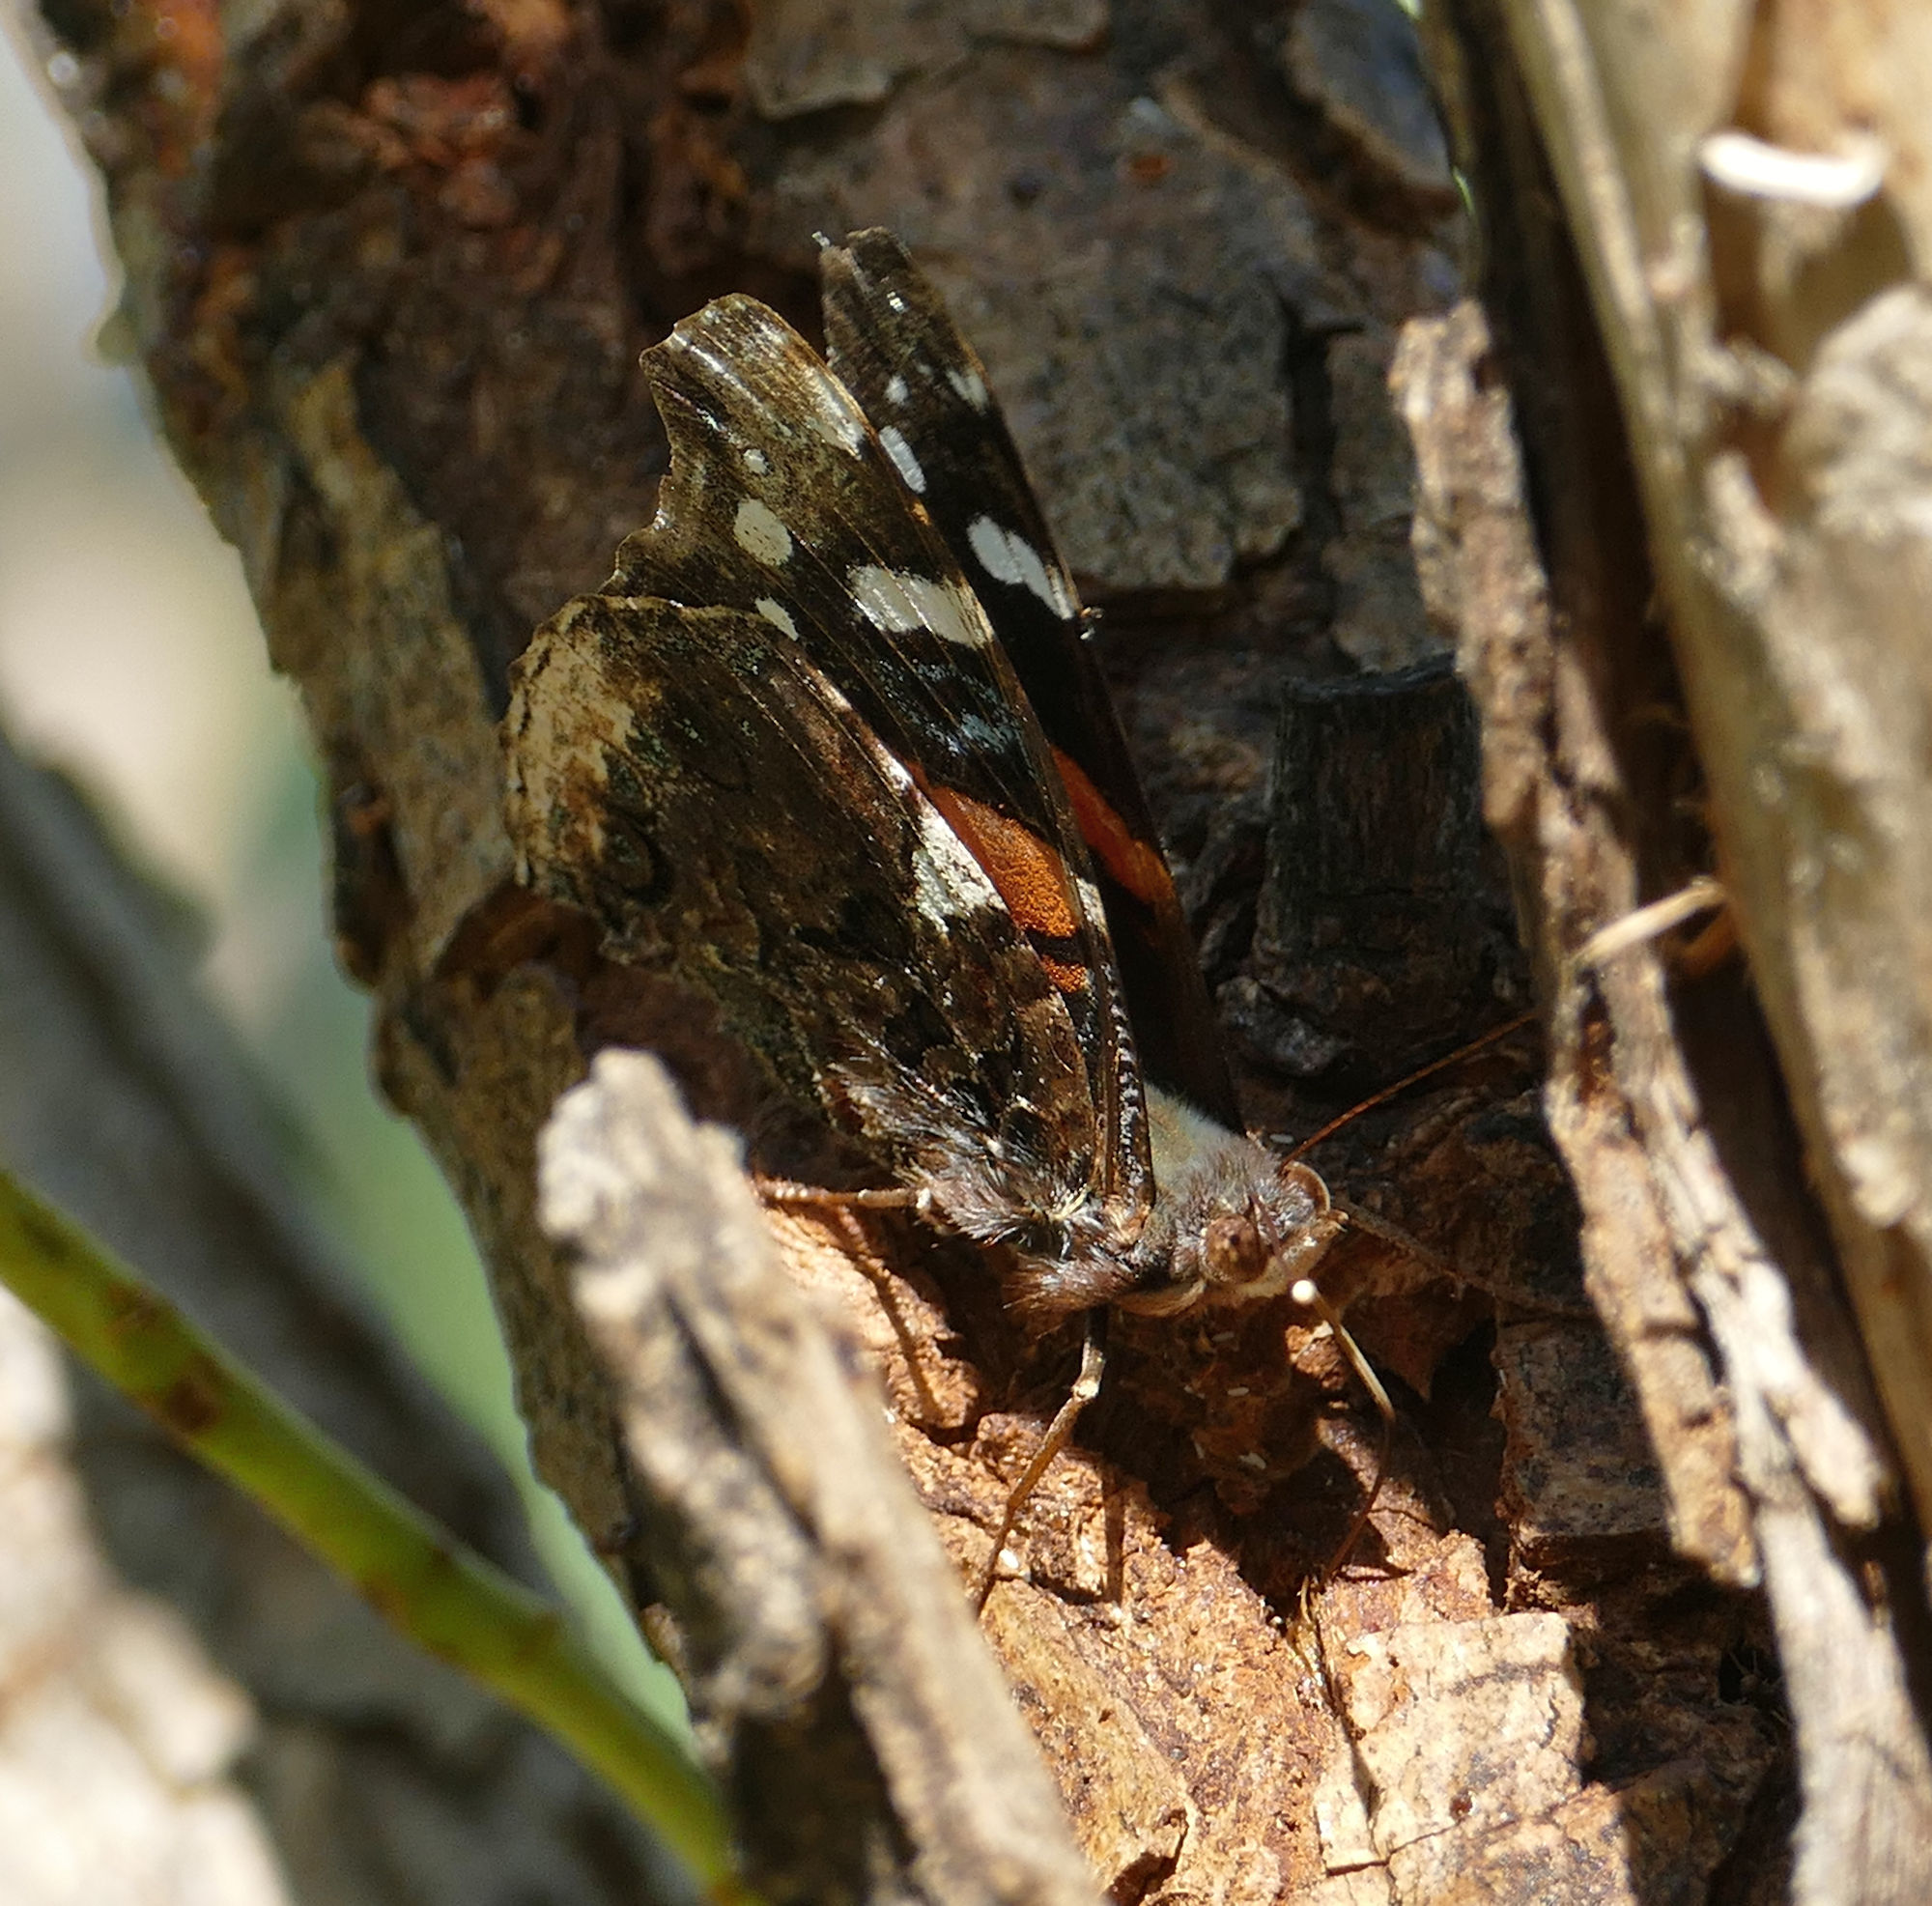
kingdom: Animalia
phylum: Arthropoda
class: Insecta
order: Lepidoptera
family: Nymphalidae
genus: Vanessa
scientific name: Vanessa atalanta
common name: Red admiral
